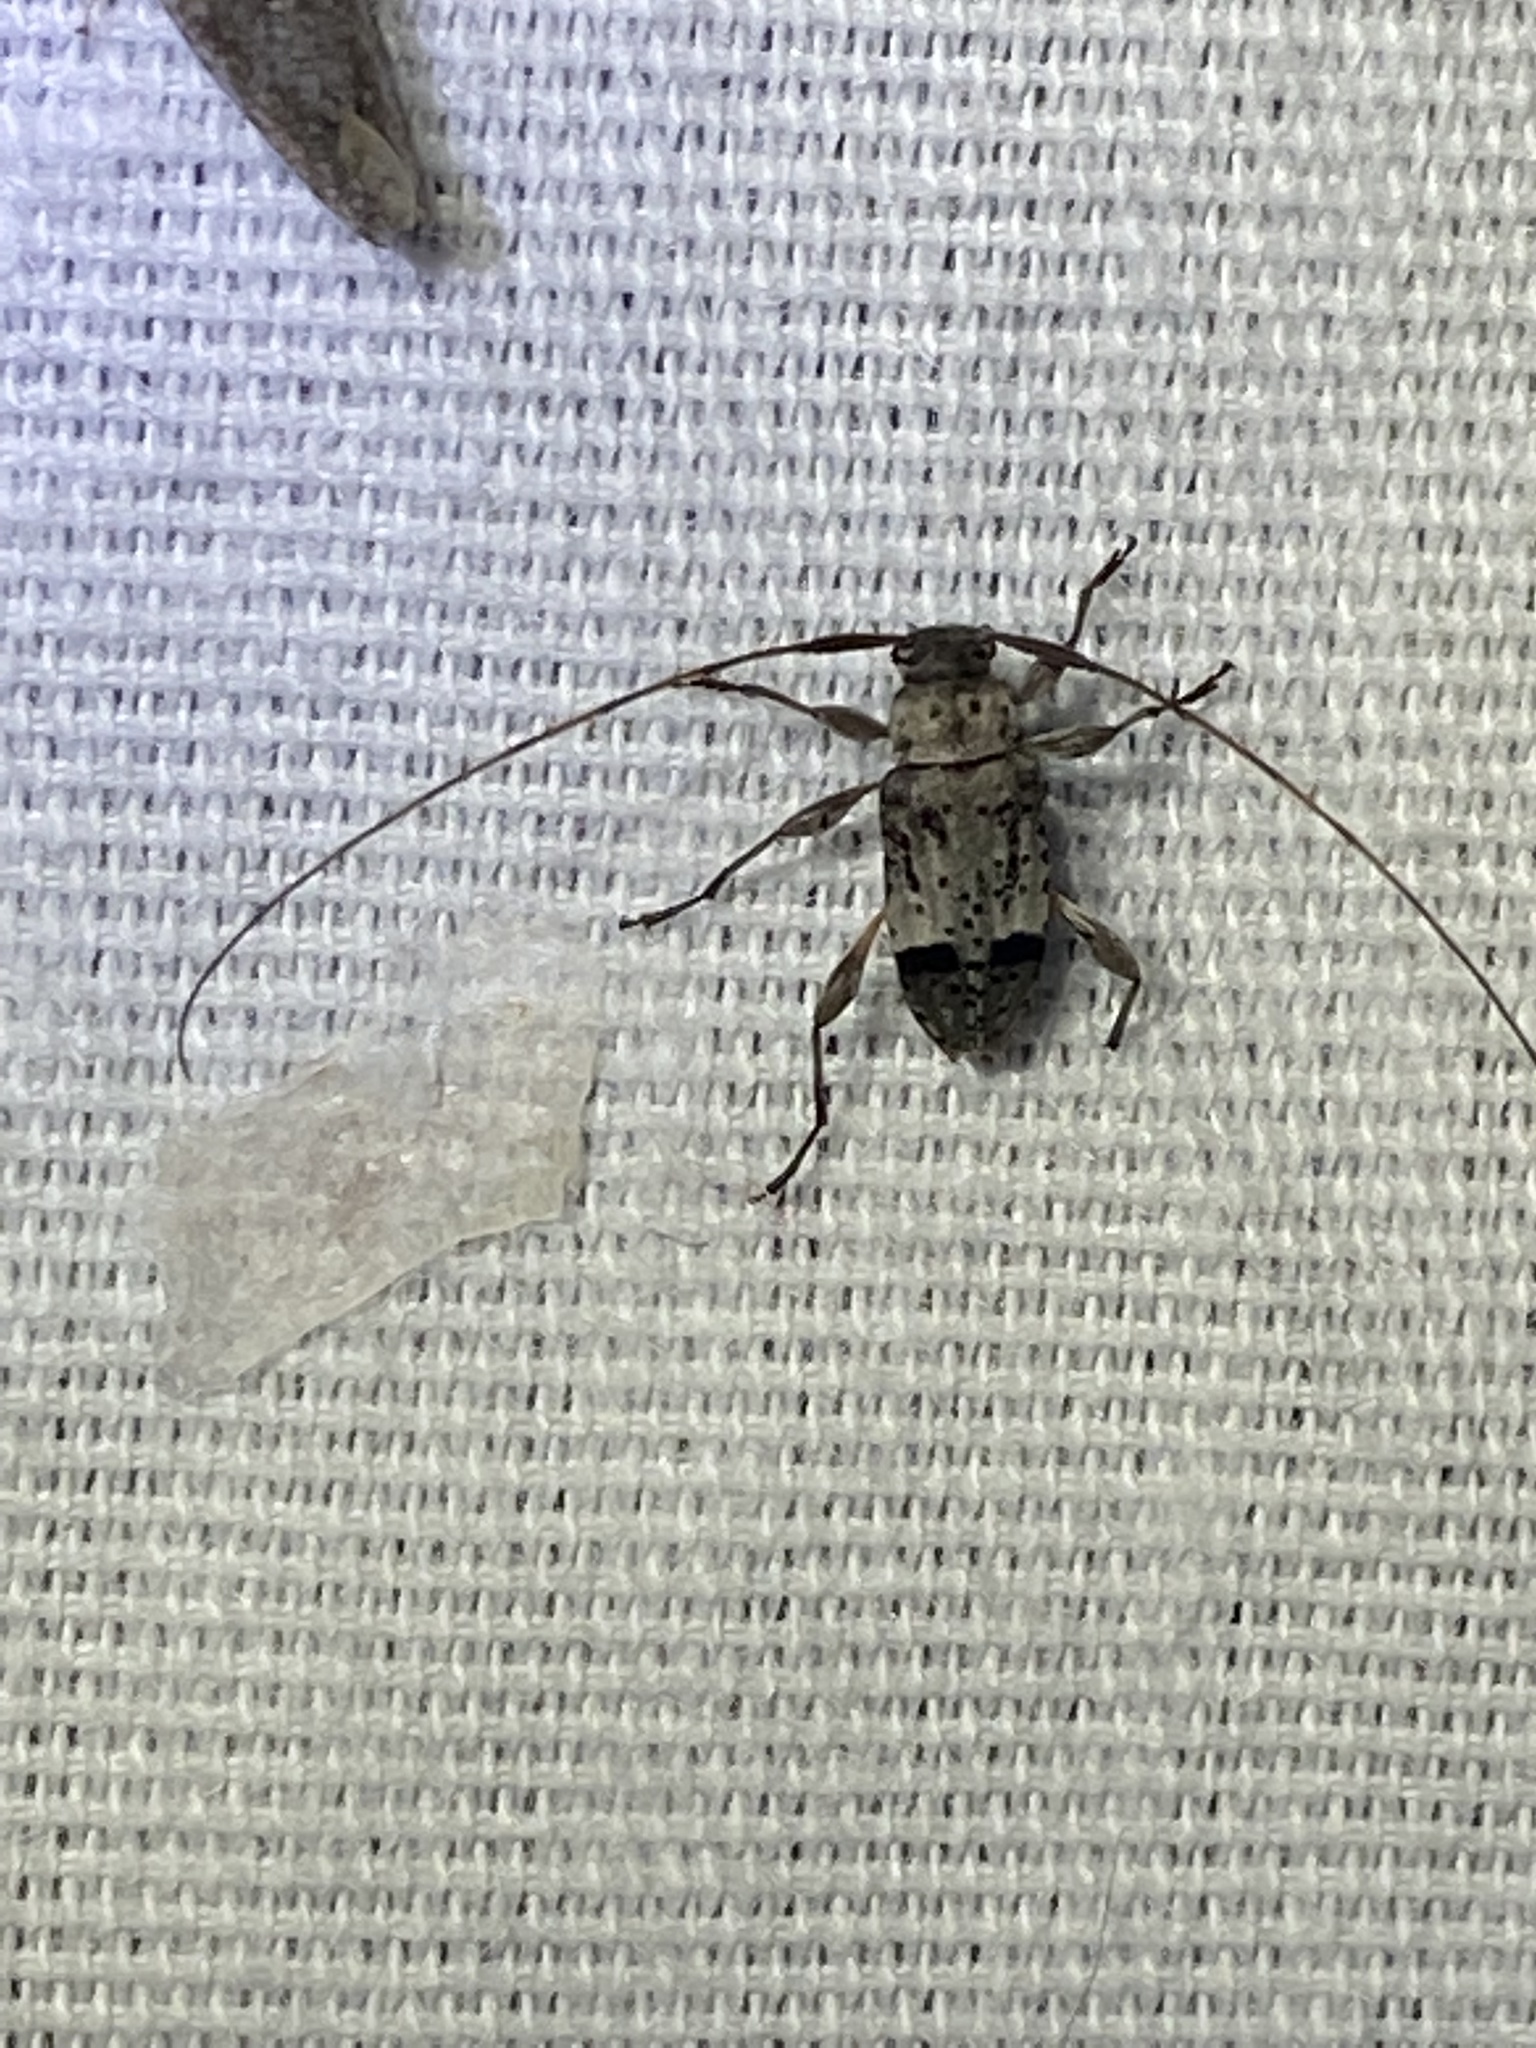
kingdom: Animalia
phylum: Arthropoda
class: Insecta
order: Coleoptera
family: Cerambycidae
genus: Hyperplatys
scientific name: Hyperplatys maculata
